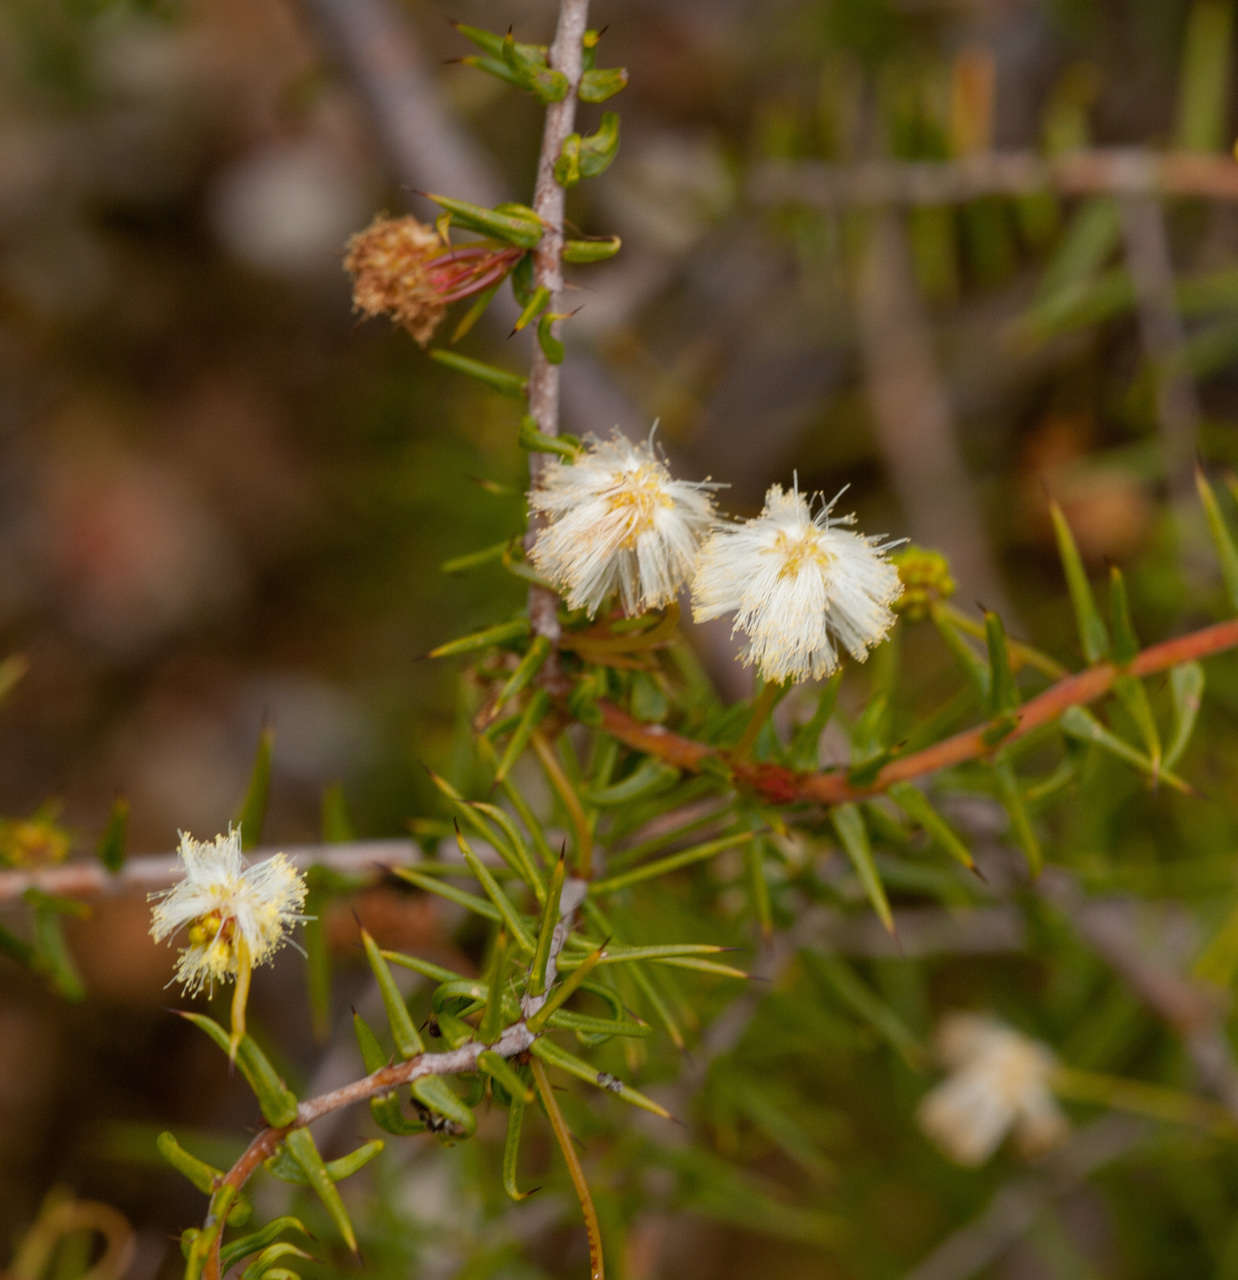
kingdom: Plantae
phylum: Tracheophyta
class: Magnoliopsida
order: Fabales
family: Fabaceae
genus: Acacia
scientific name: Acacia ulicifolia
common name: Juniper wattle
